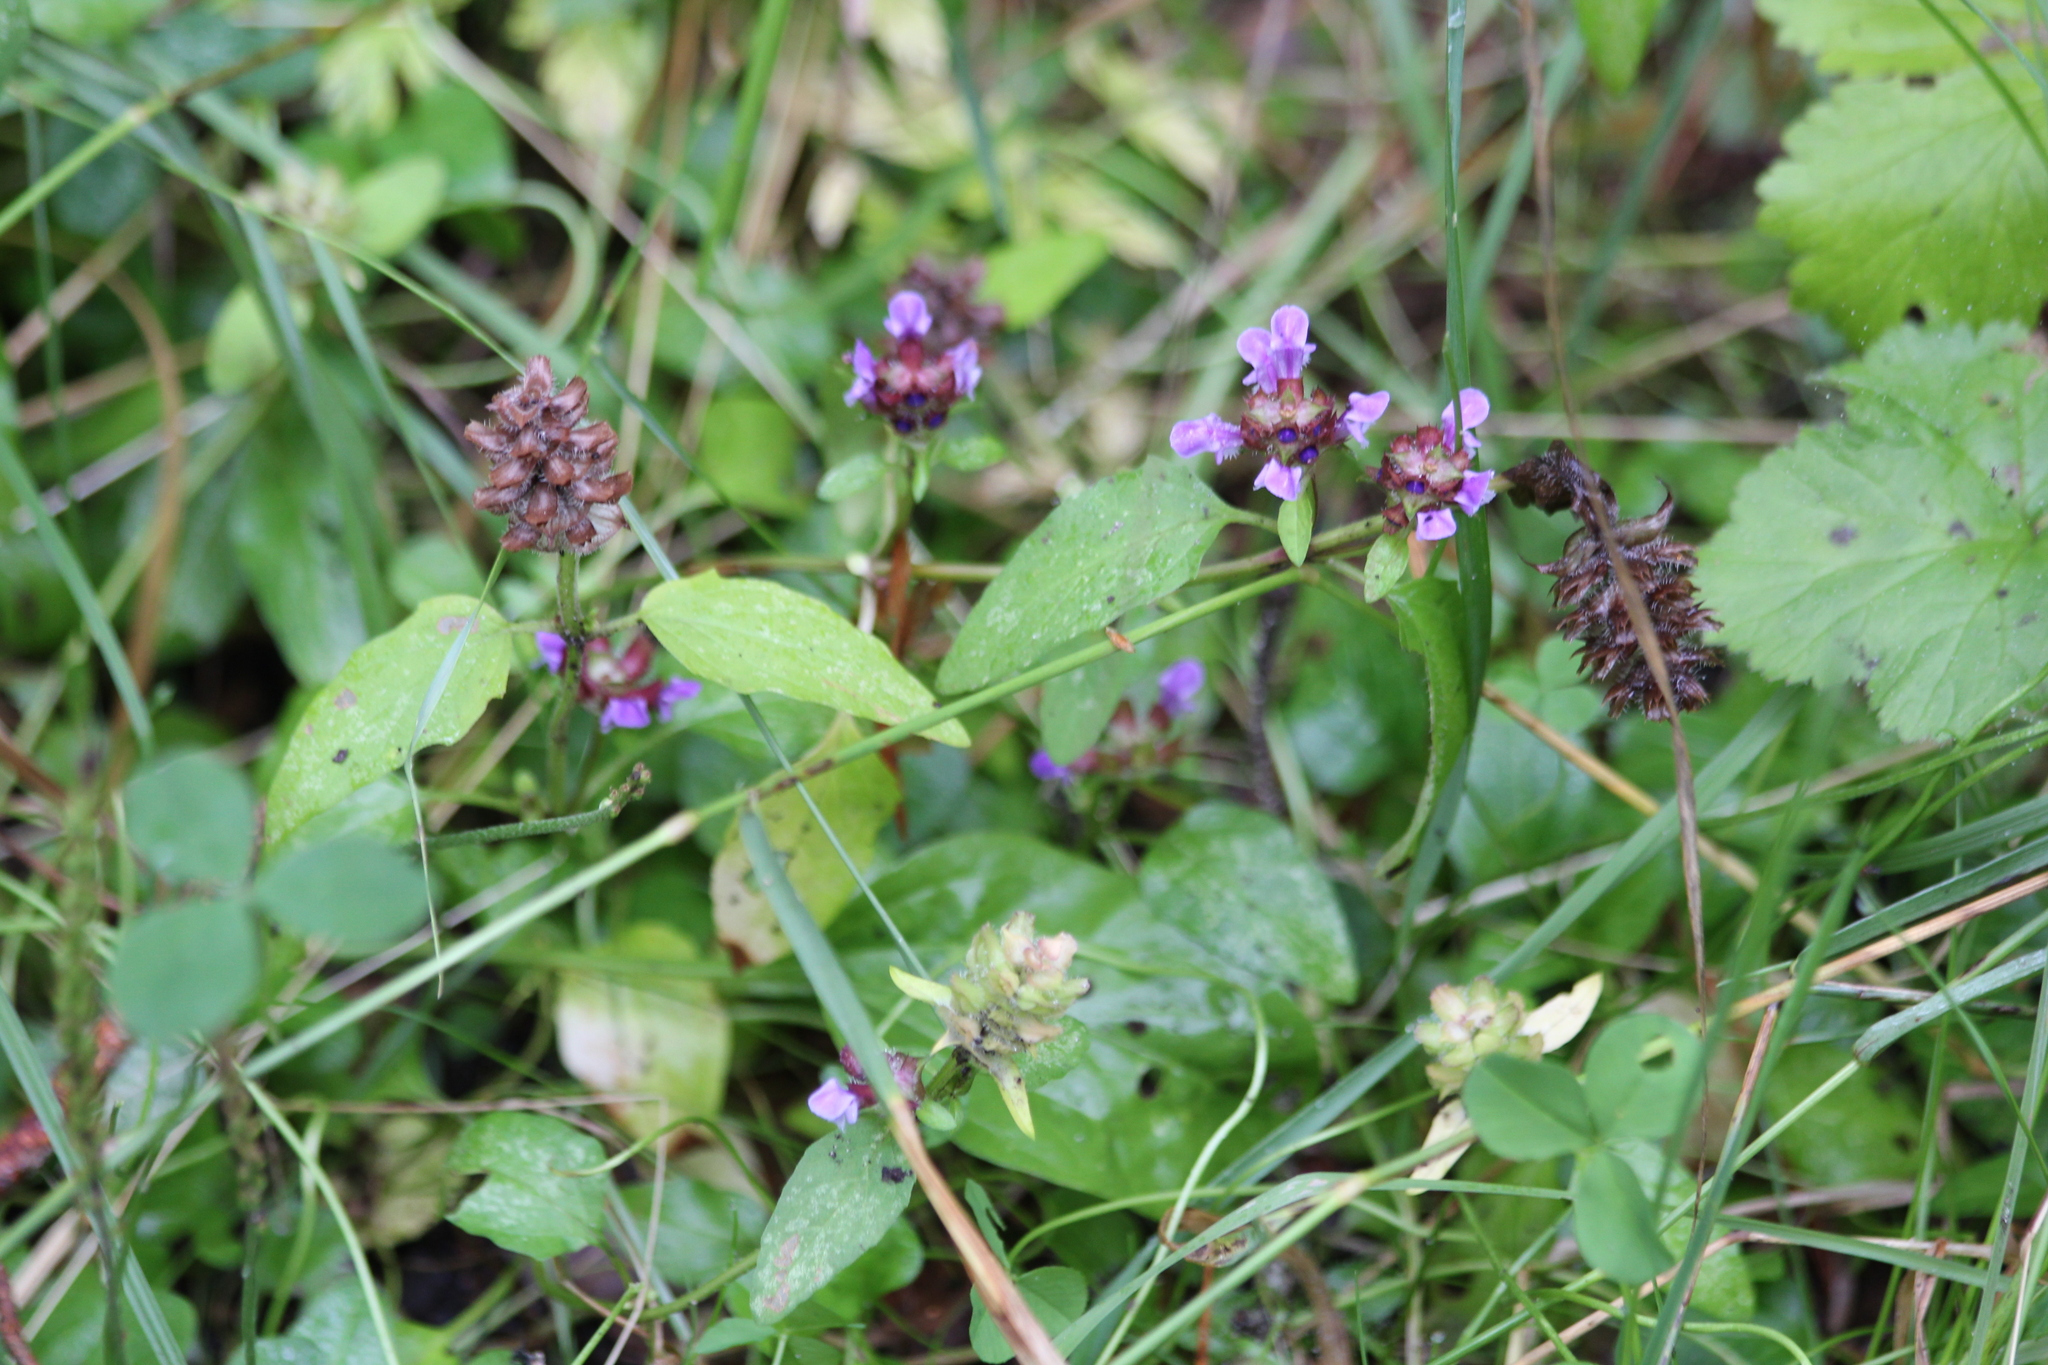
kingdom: Plantae
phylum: Tracheophyta
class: Magnoliopsida
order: Lamiales
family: Lamiaceae
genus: Prunella
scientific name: Prunella vulgaris
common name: Heal-all
